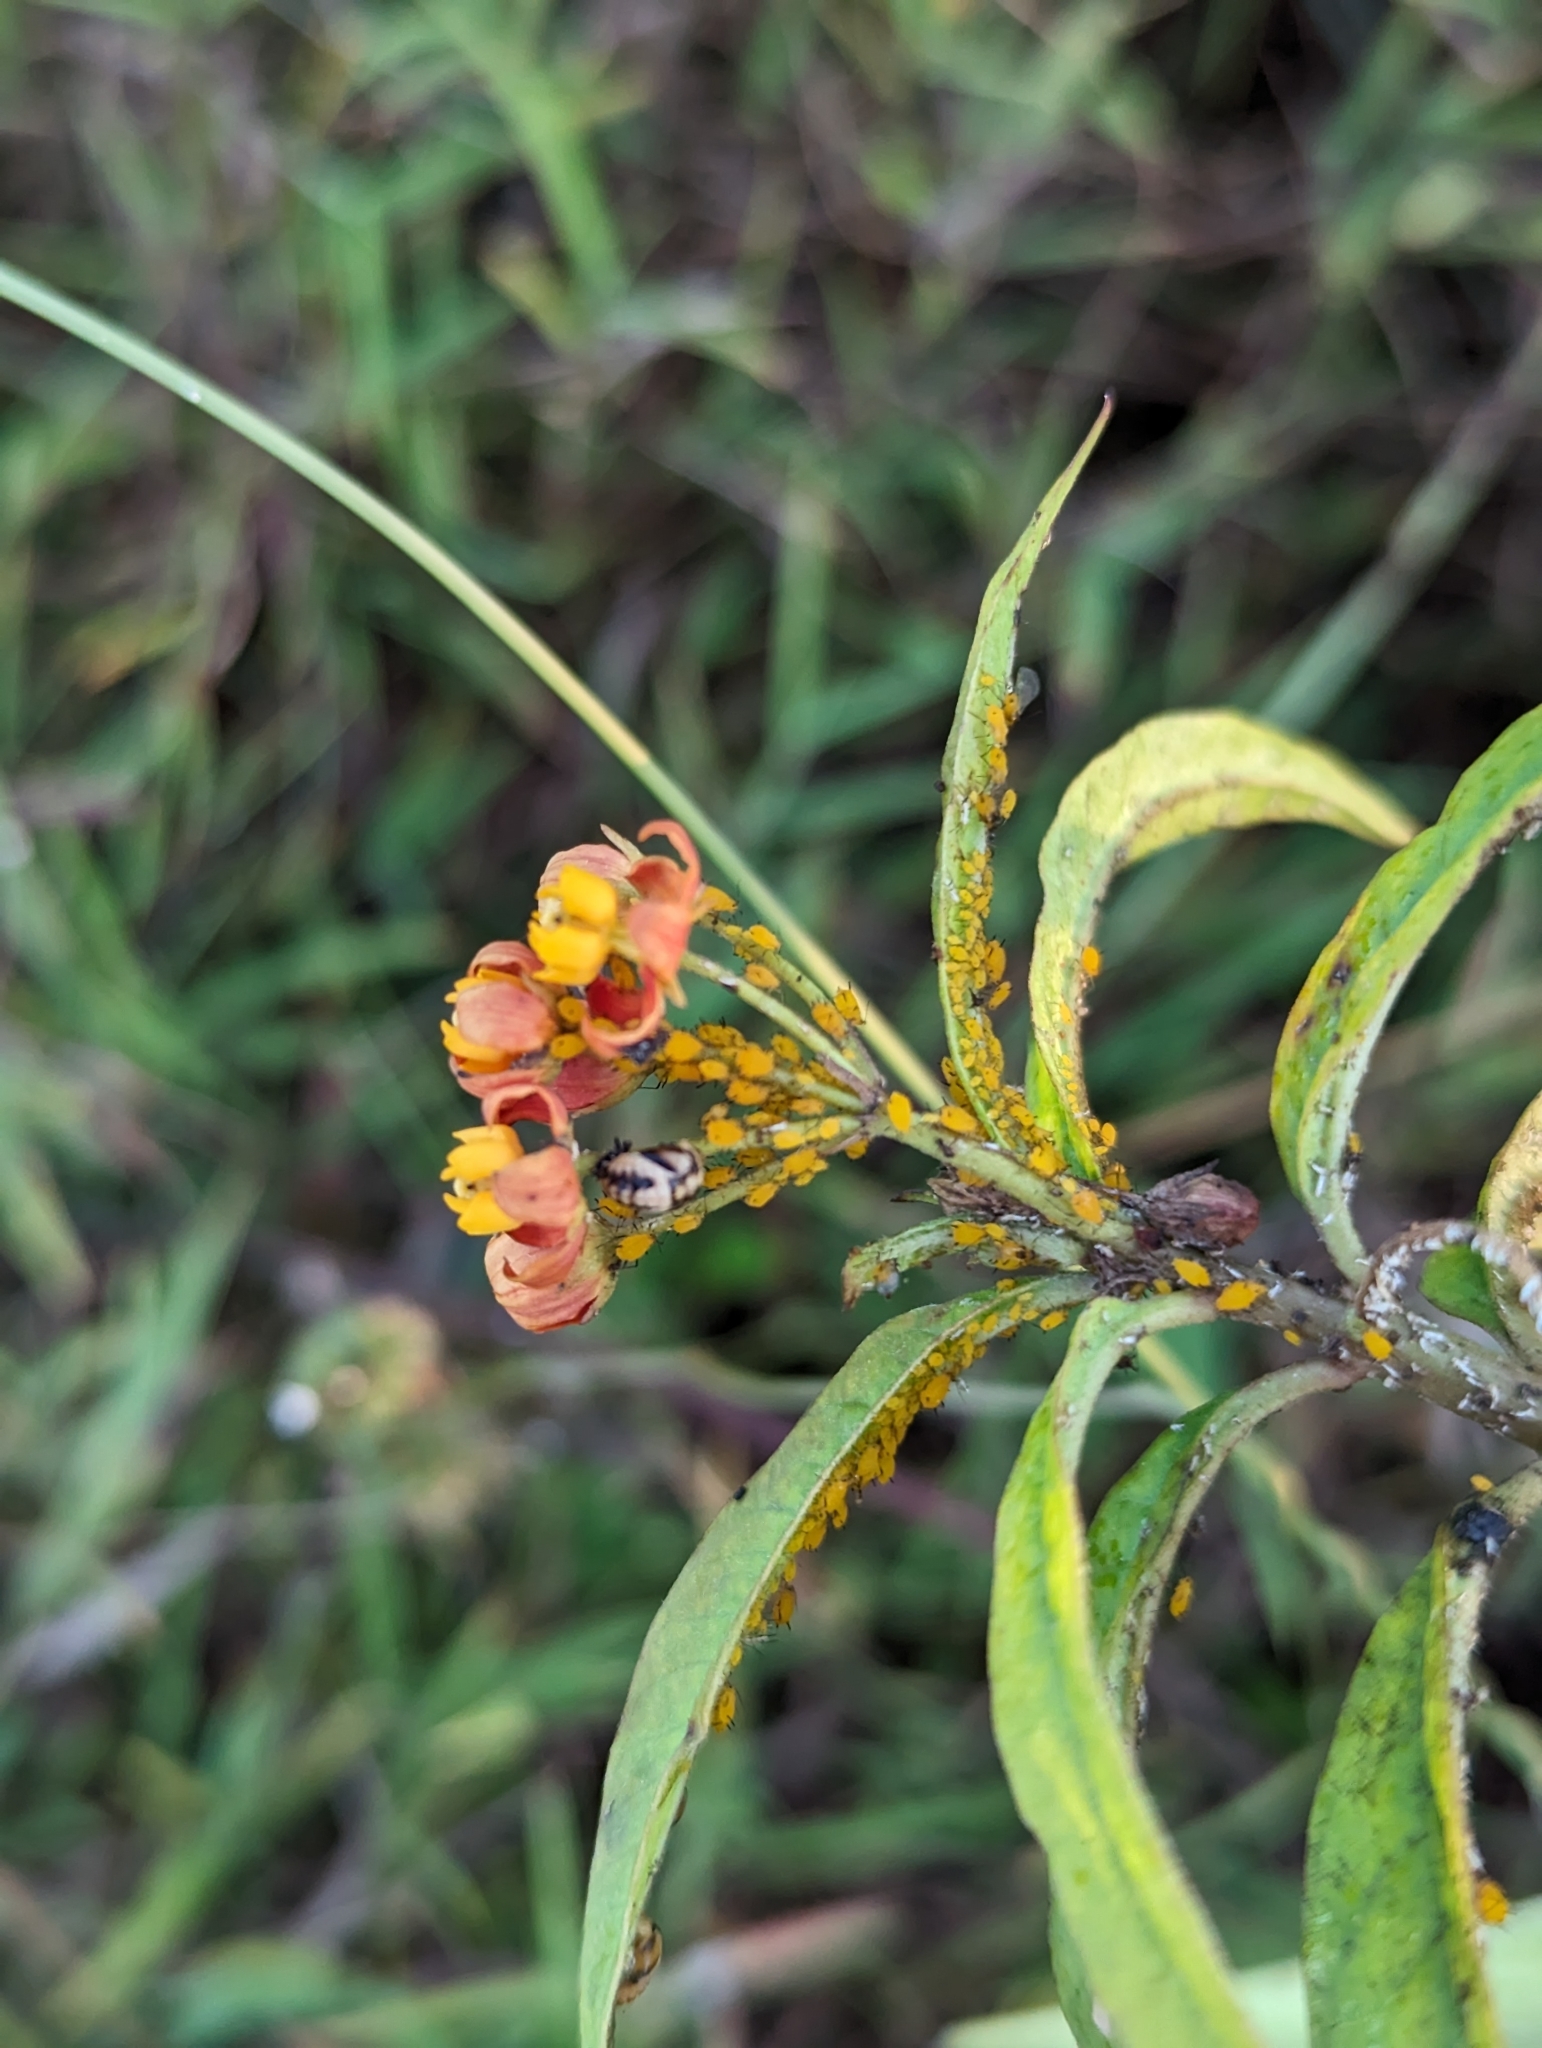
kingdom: Animalia
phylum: Arthropoda
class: Insecta
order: Hemiptera
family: Aphididae
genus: Aphis
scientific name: Aphis nerii
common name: Oleander aphid
